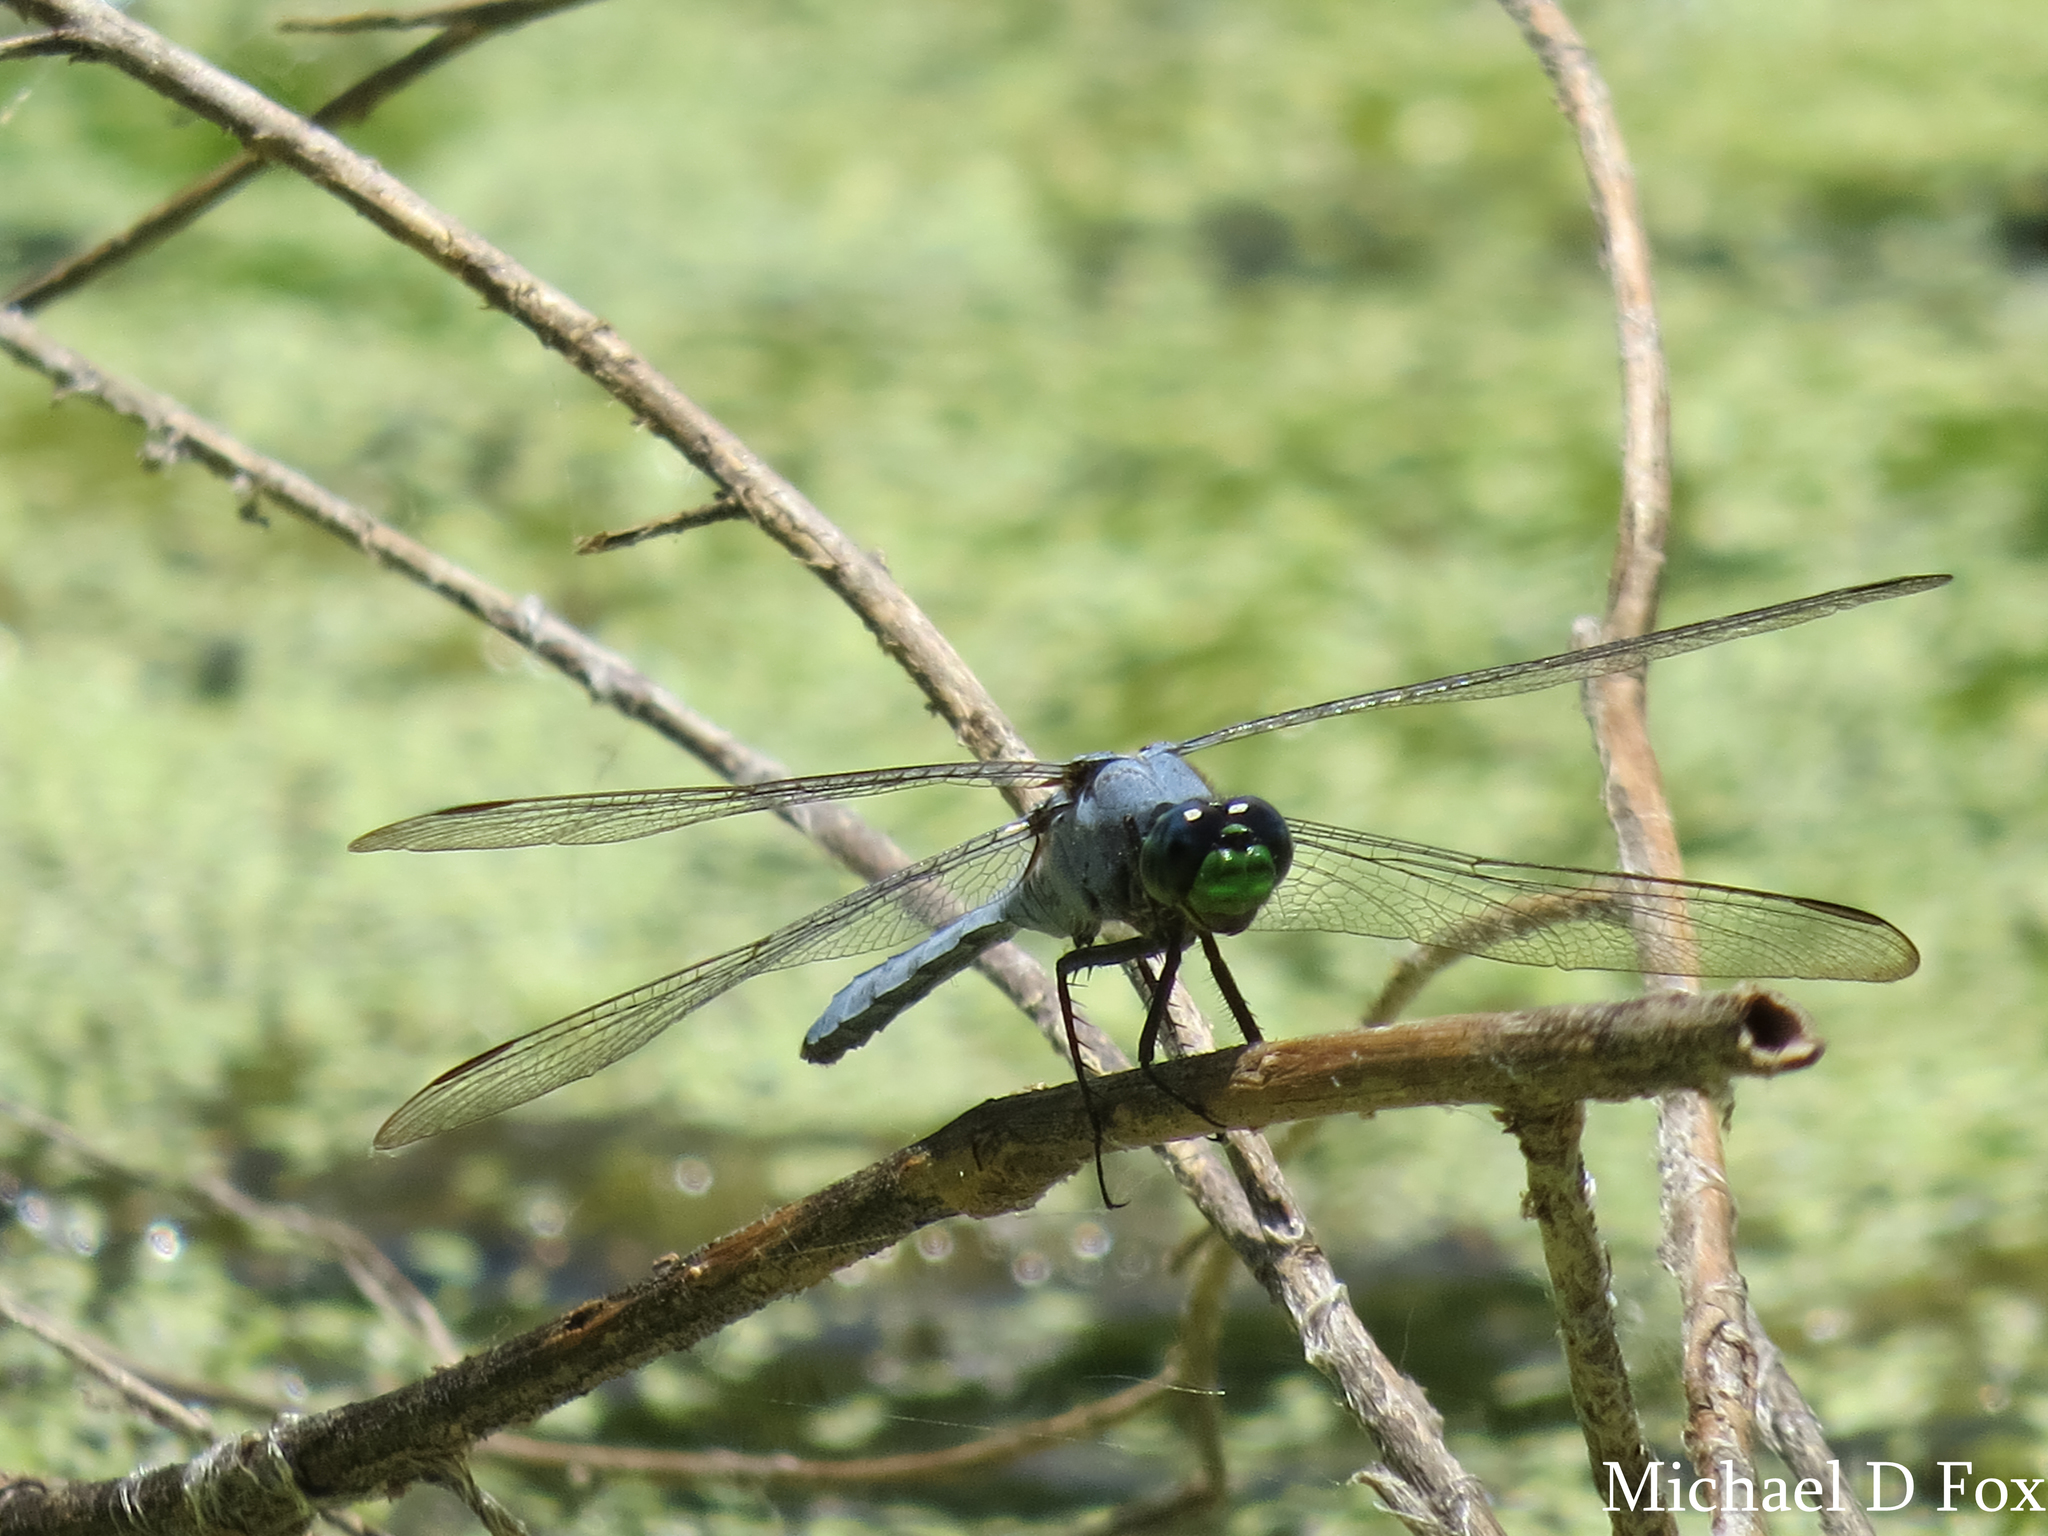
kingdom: Animalia
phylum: Arthropoda
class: Insecta
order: Odonata
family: Libellulidae
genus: Erythemis
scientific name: Erythemis simplicicollis
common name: Eastern pondhawk
